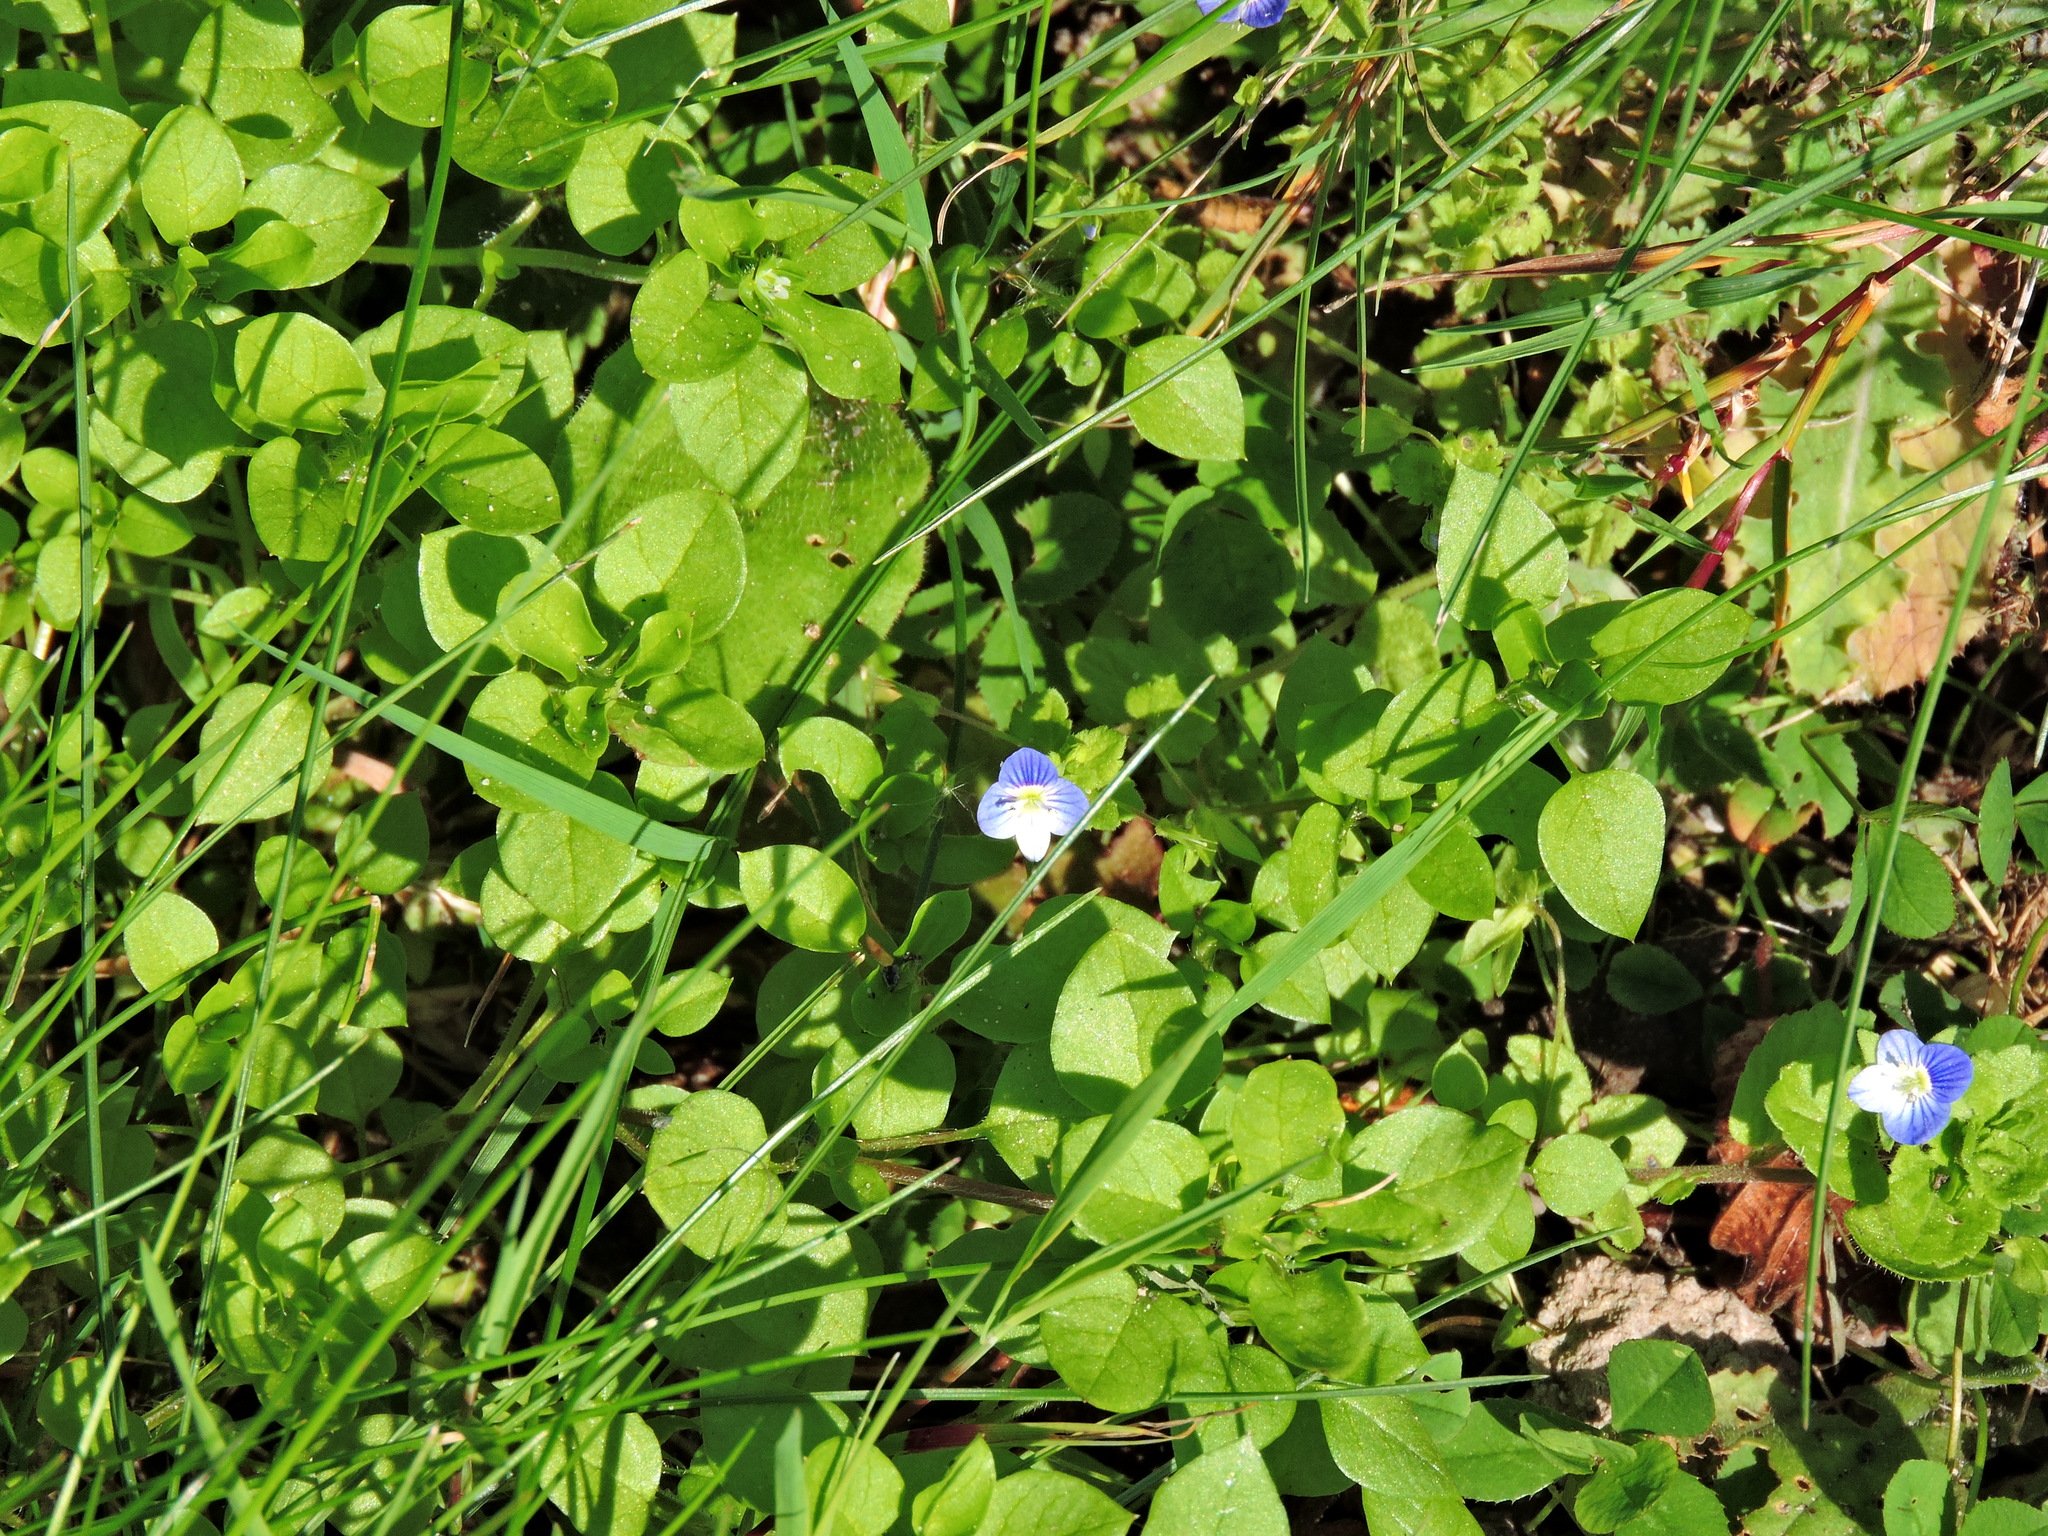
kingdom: Plantae
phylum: Tracheophyta
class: Magnoliopsida
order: Lamiales
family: Plantaginaceae
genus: Veronica
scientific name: Veronica persica
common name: Common field-speedwell
